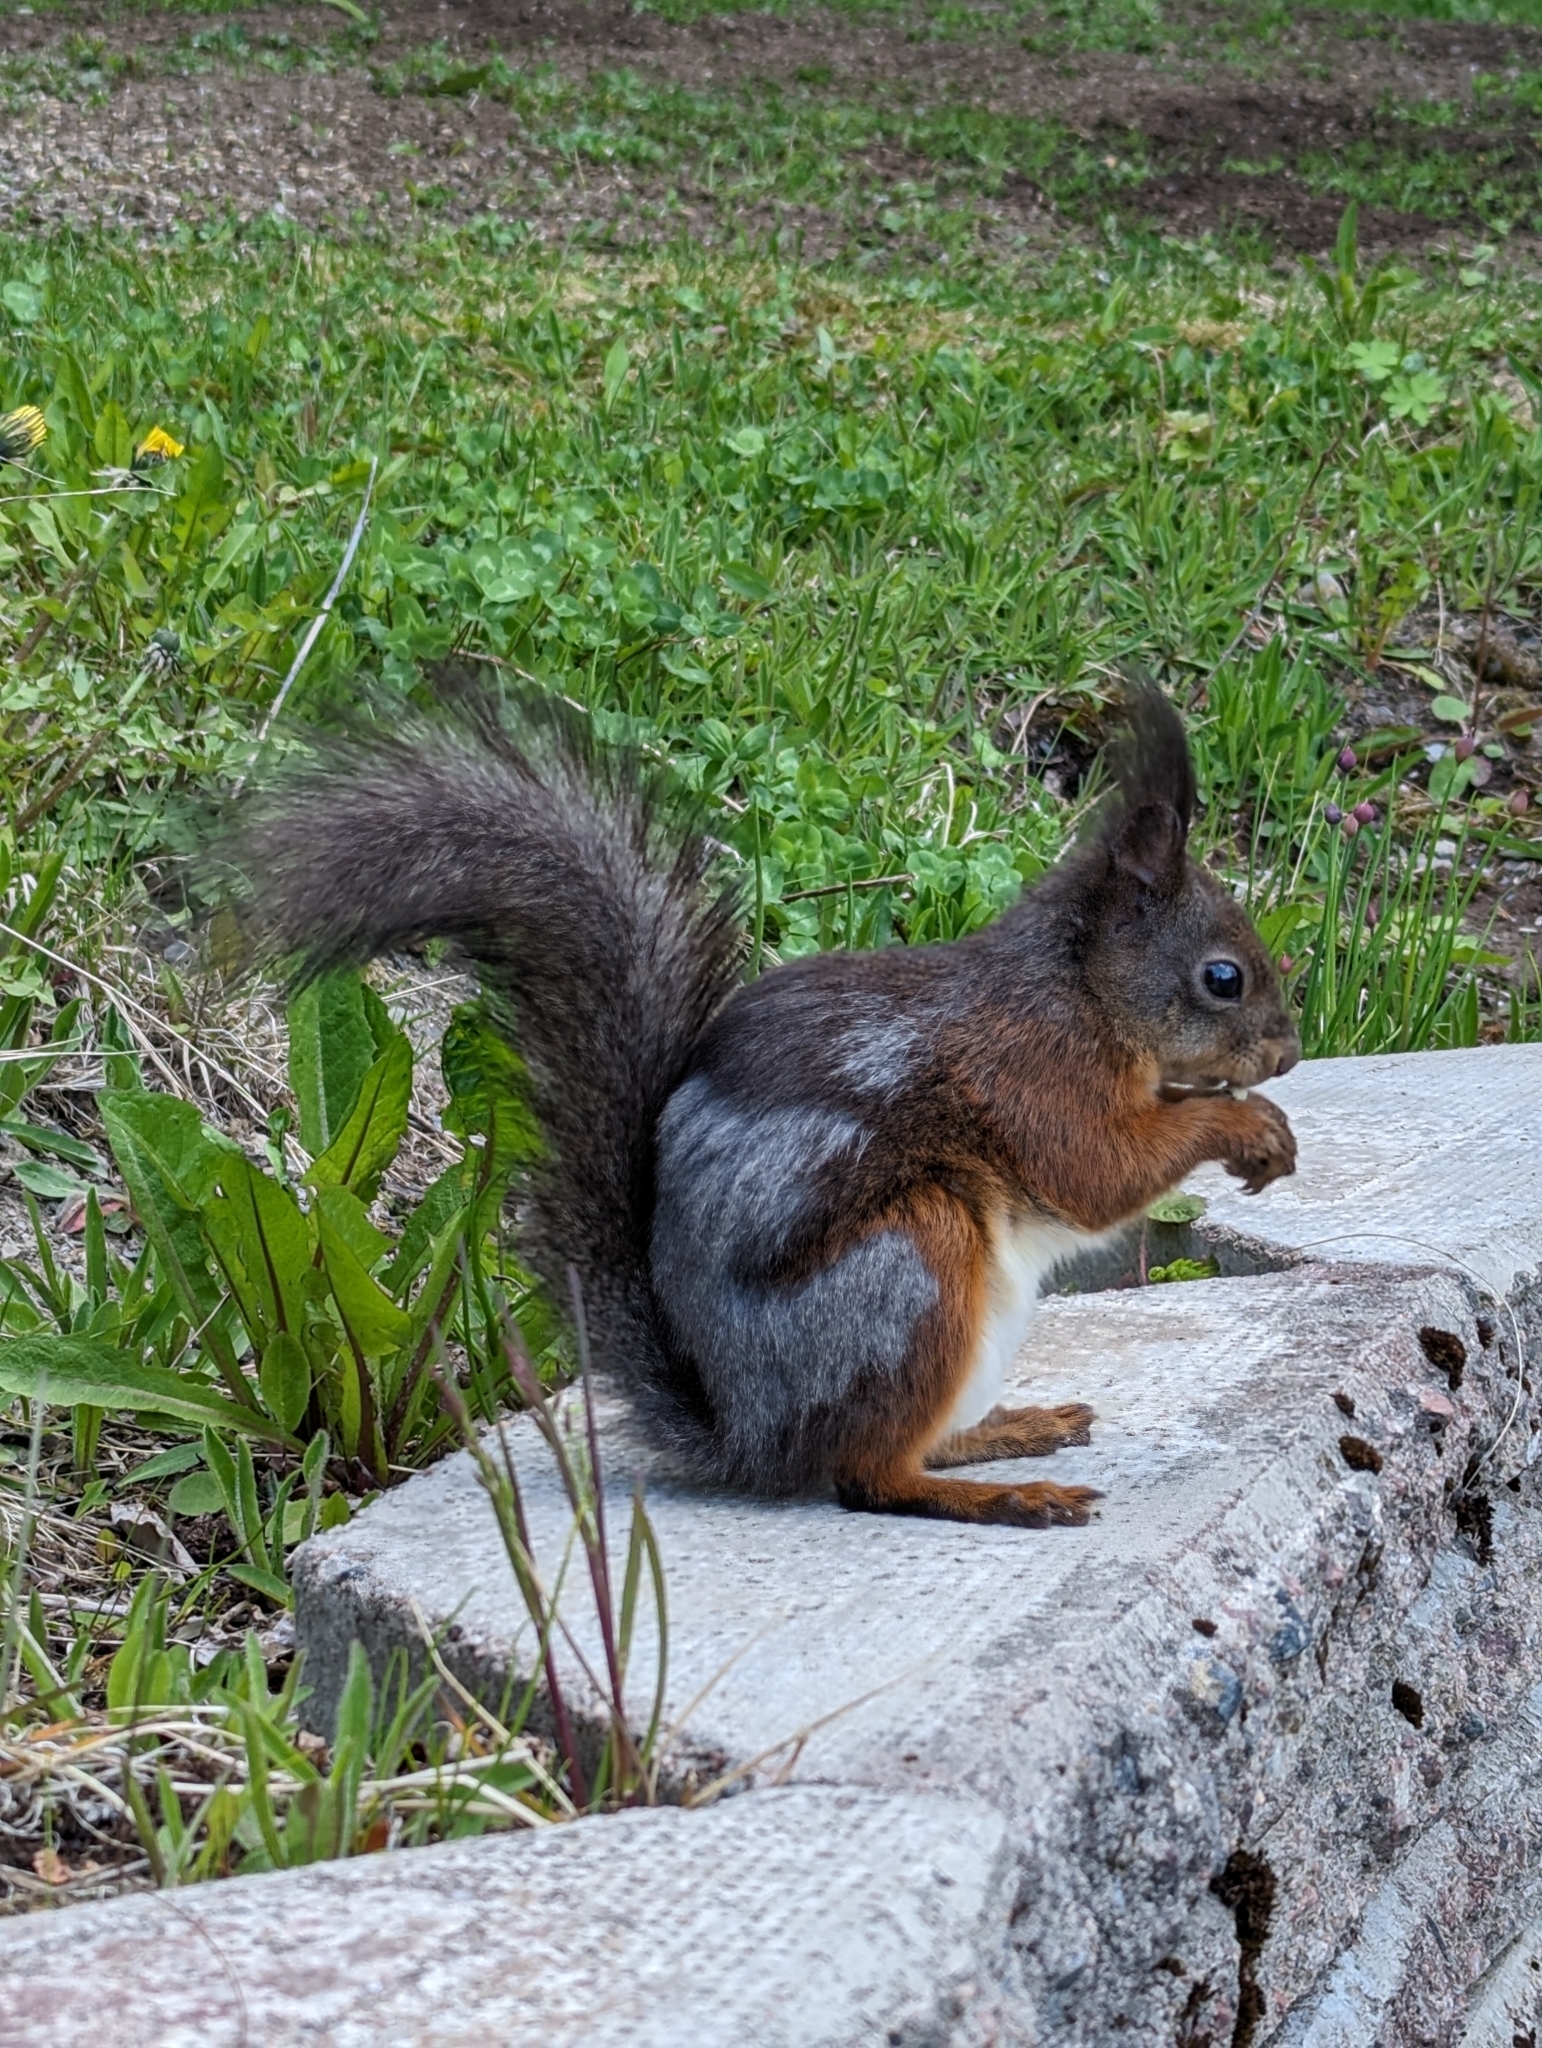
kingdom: Animalia
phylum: Chordata
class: Mammalia
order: Rodentia
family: Sciuridae
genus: Sciurus
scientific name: Sciurus vulgaris
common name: Eurasian red squirrel
